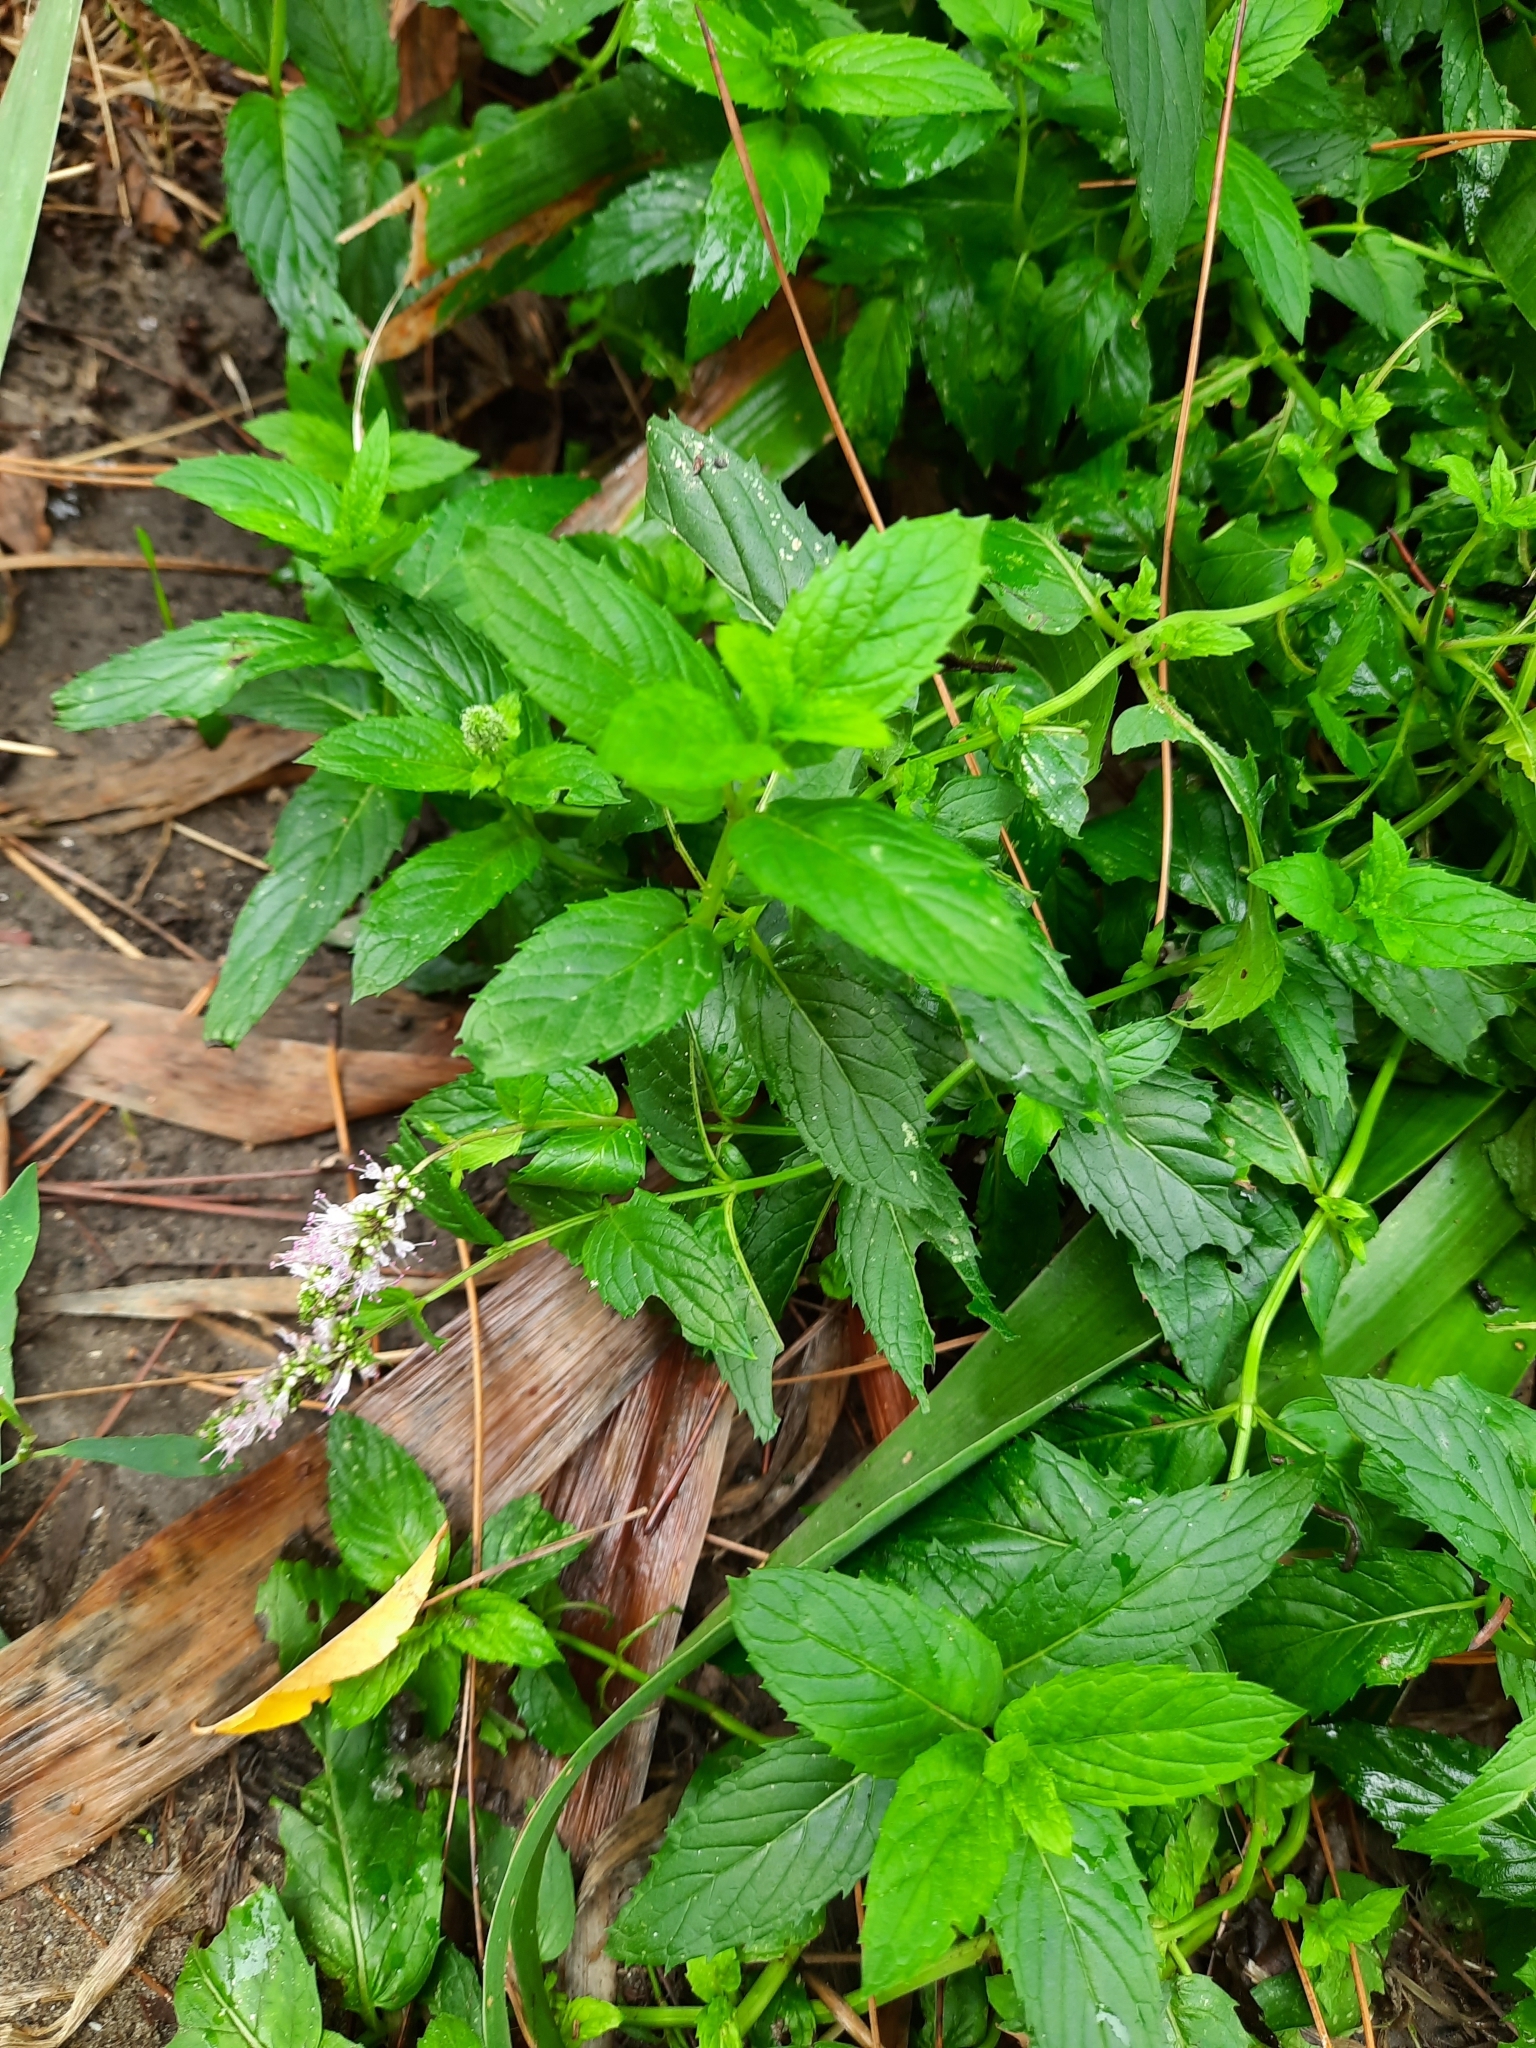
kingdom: Plantae
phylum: Tracheophyta
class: Magnoliopsida
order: Lamiales
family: Lamiaceae
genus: Mentha
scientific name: Mentha spicata
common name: Spearmint
